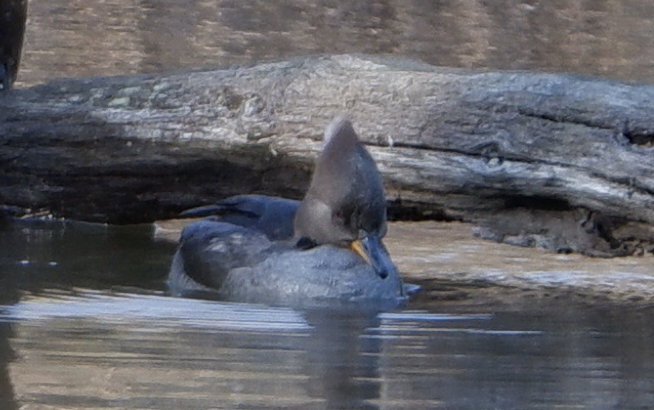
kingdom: Animalia
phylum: Chordata
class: Aves
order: Anseriformes
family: Anatidae
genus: Lophodytes
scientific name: Lophodytes cucullatus
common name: Hooded merganser
